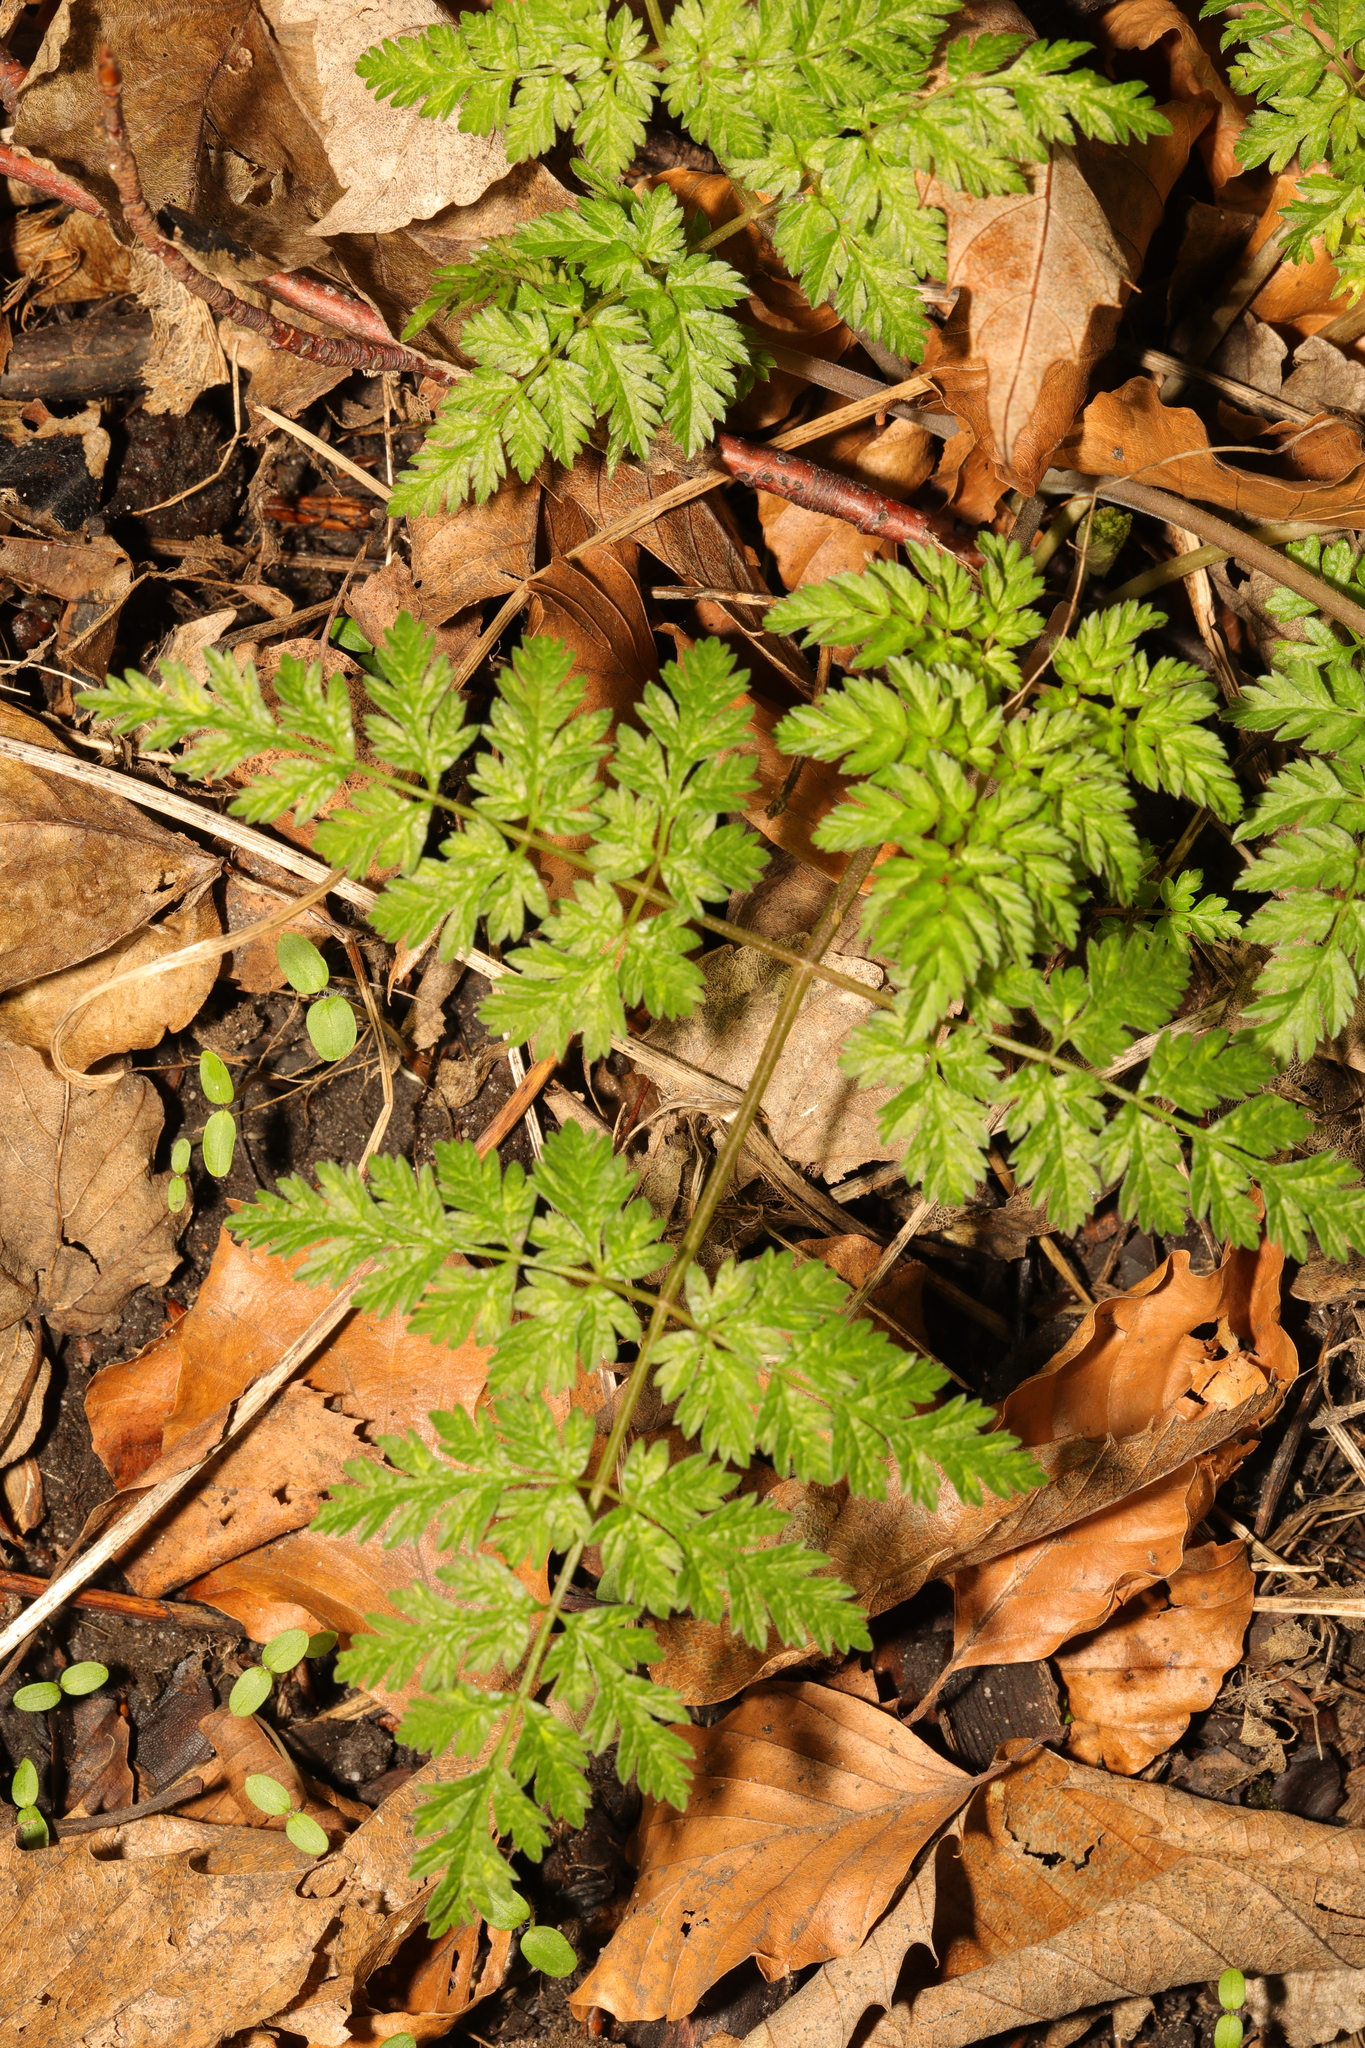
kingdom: Plantae
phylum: Tracheophyta
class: Magnoliopsida
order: Apiales
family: Apiaceae
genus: Anthriscus
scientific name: Anthriscus sylvestris
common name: Cow parsley
